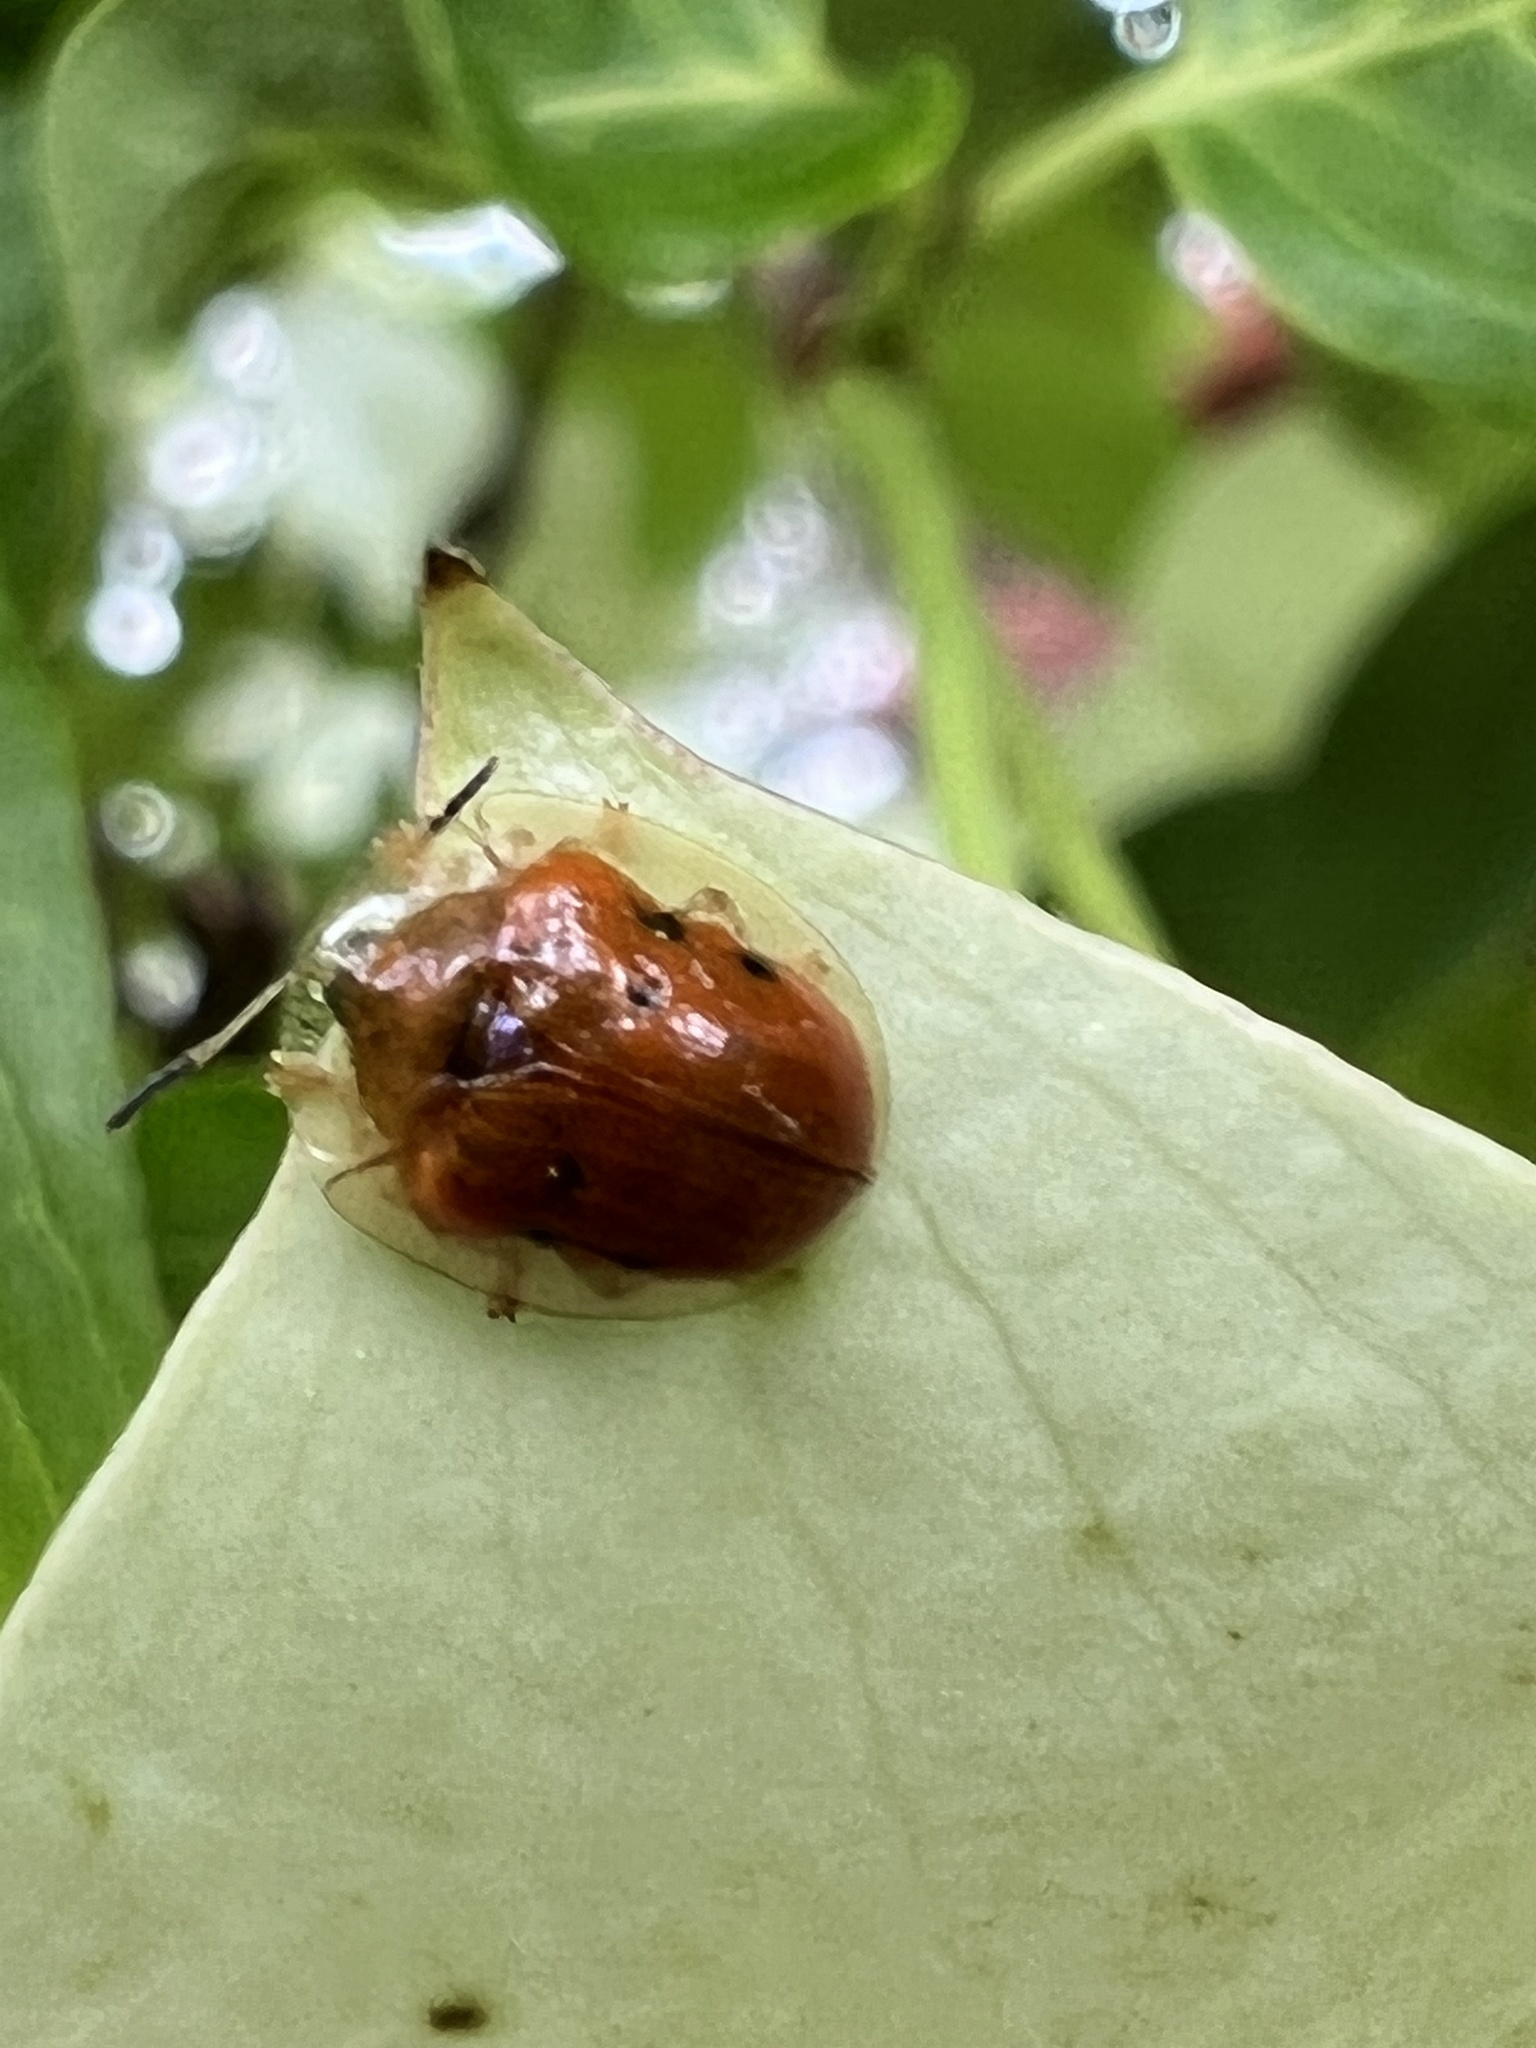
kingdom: Animalia
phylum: Arthropoda
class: Insecta
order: Coleoptera
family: Chrysomelidae
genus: Charidotella
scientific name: Charidotella sexpunctata
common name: Golden tortoise beetle
